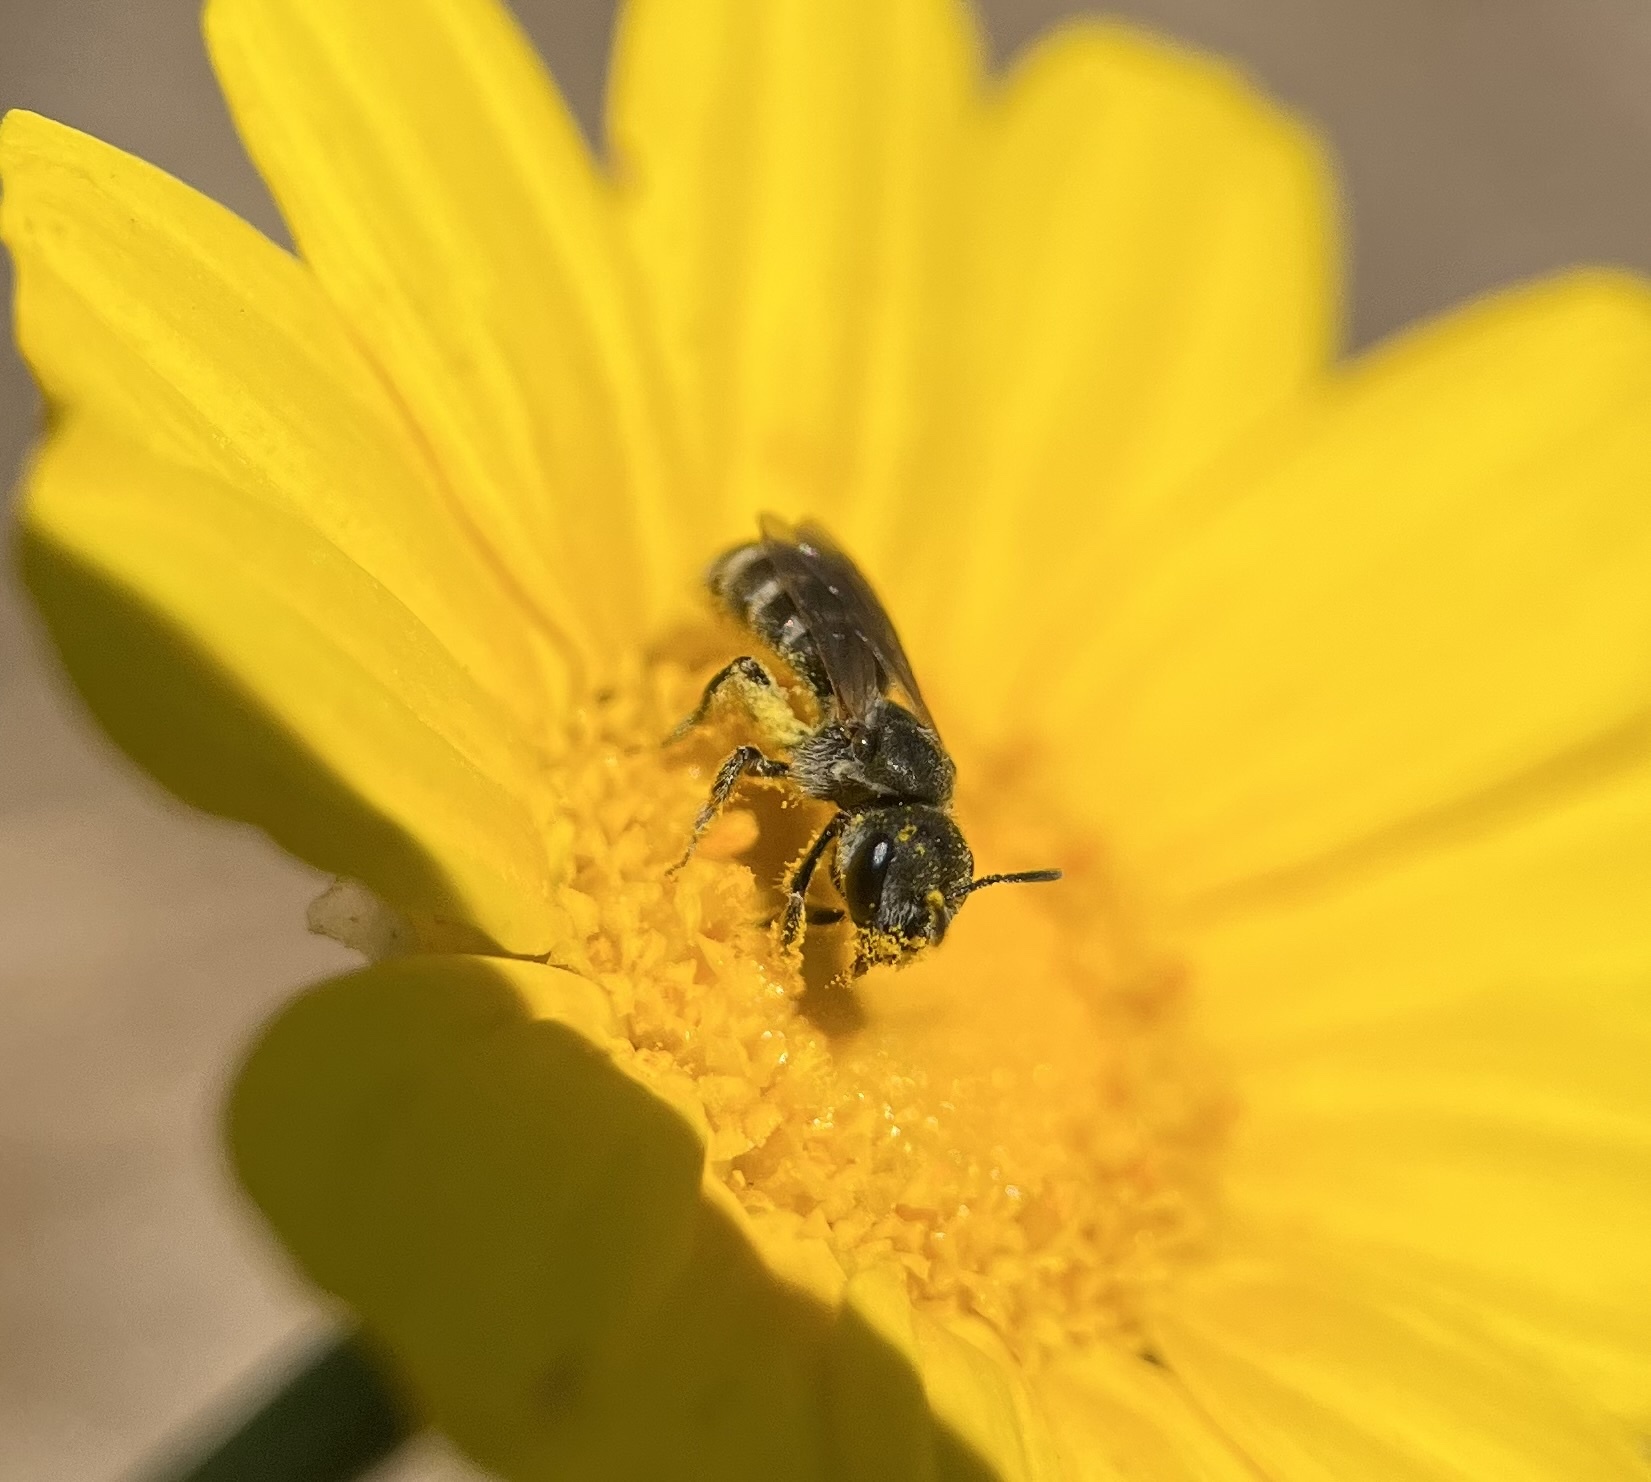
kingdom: Animalia
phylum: Arthropoda
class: Insecta
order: Hymenoptera
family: Halictidae
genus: Halictus
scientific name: Halictus tripartitus
